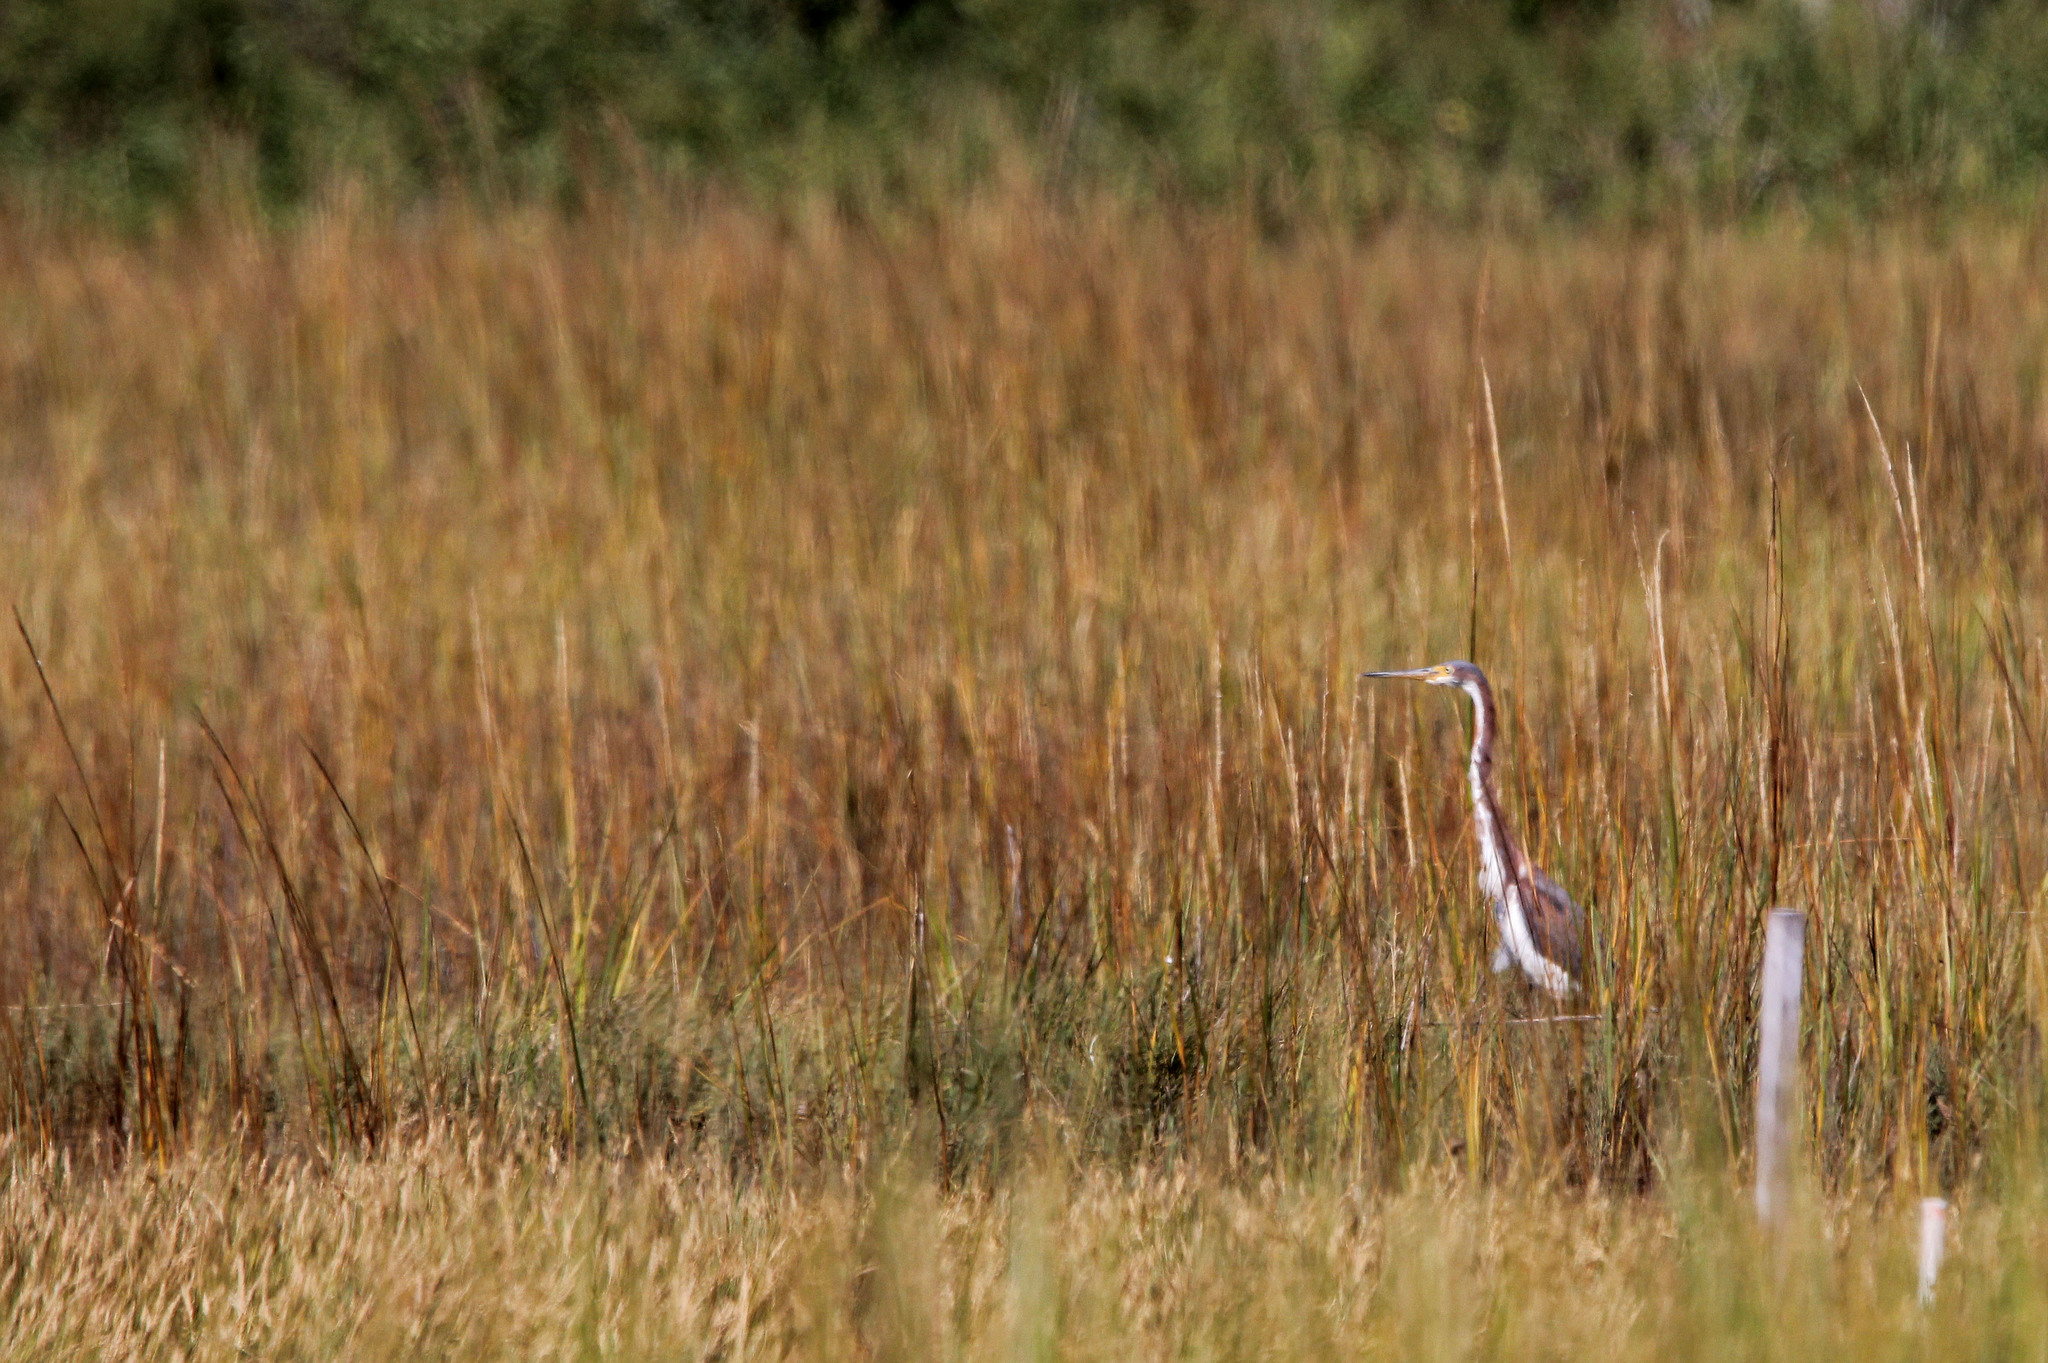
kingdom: Animalia
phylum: Chordata
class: Aves
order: Pelecaniformes
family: Ardeidae
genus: Egretta
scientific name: Egretta tricolor
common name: Tricolored heron
